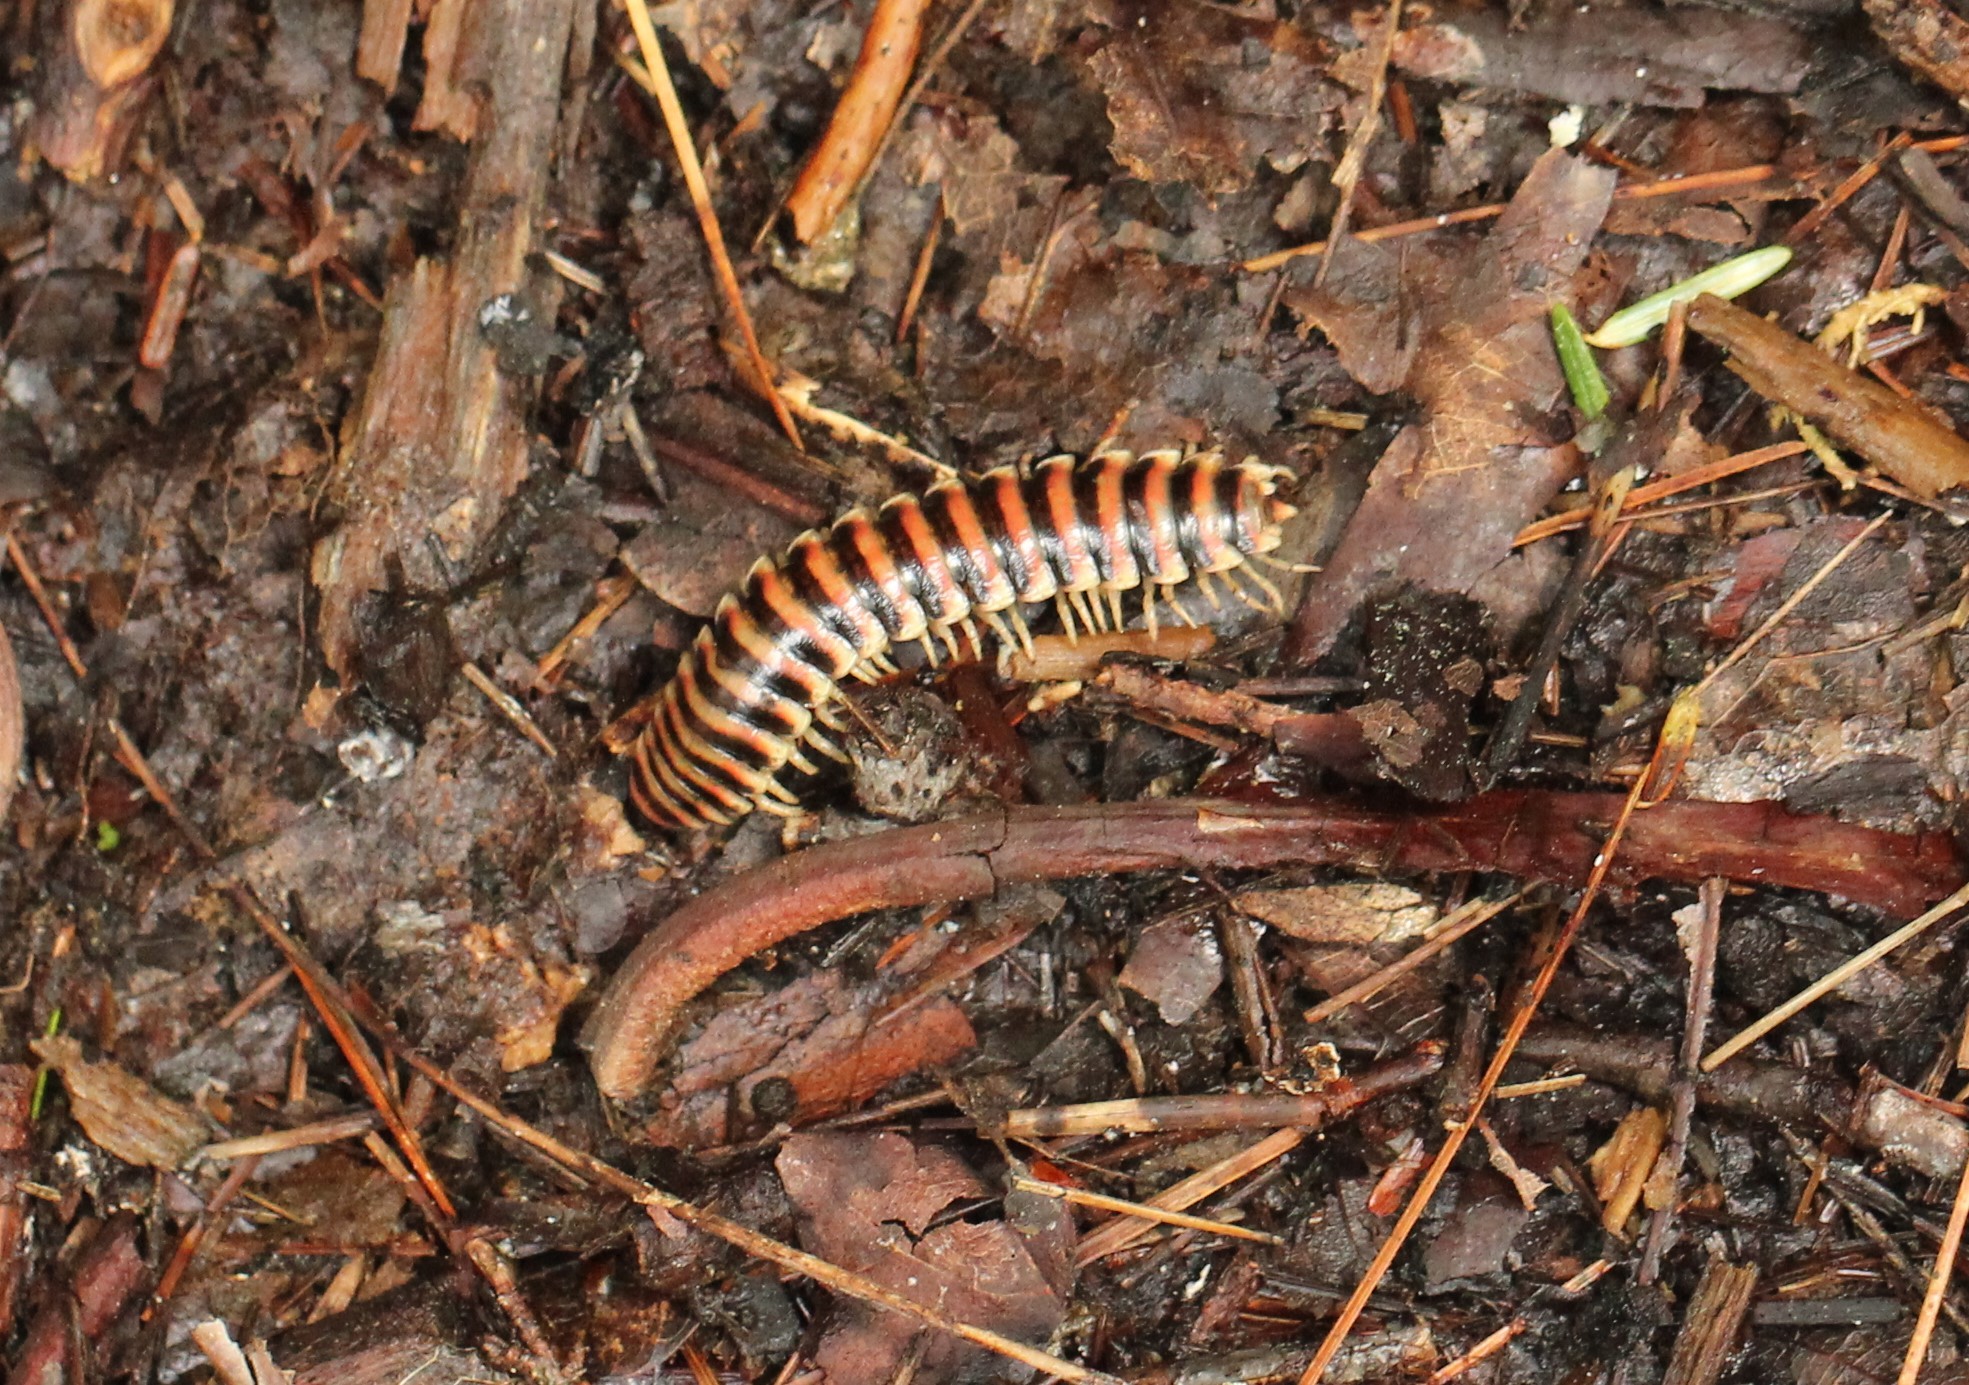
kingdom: Animalia
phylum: Arthropoda
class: Diplopoda
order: Polydesmida
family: Xystodesmidae
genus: Cherokia
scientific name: Cherokia georgiana
